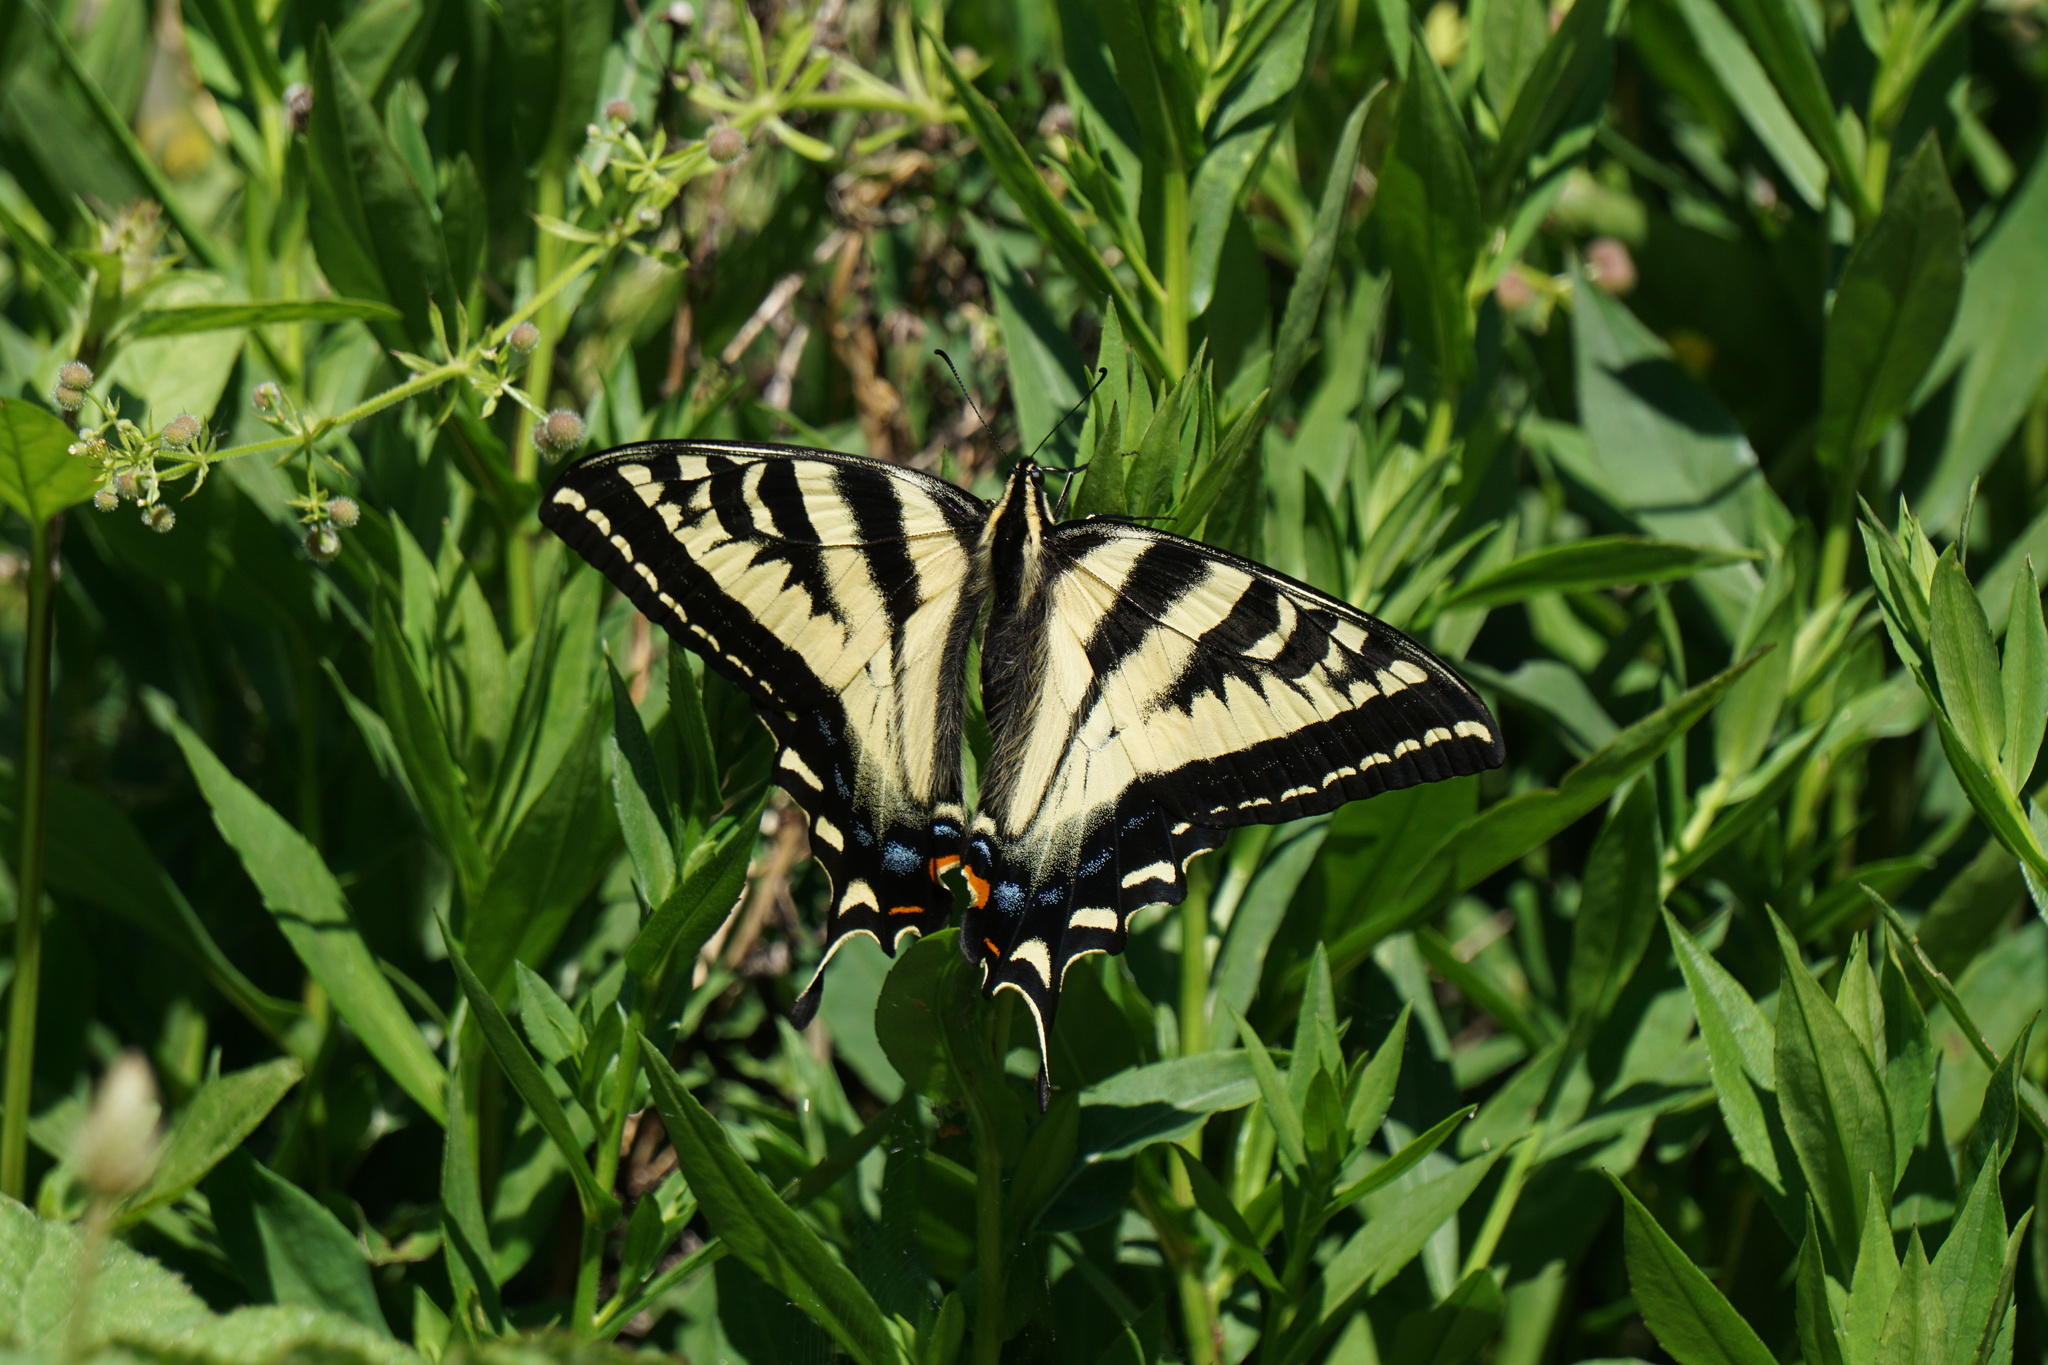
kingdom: Animalia
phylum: Arthropoda
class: Insecta
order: Lepidoptera
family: Papilionidae
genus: Papilio
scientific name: Papilio rutulus
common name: Western tiger swallowtail
